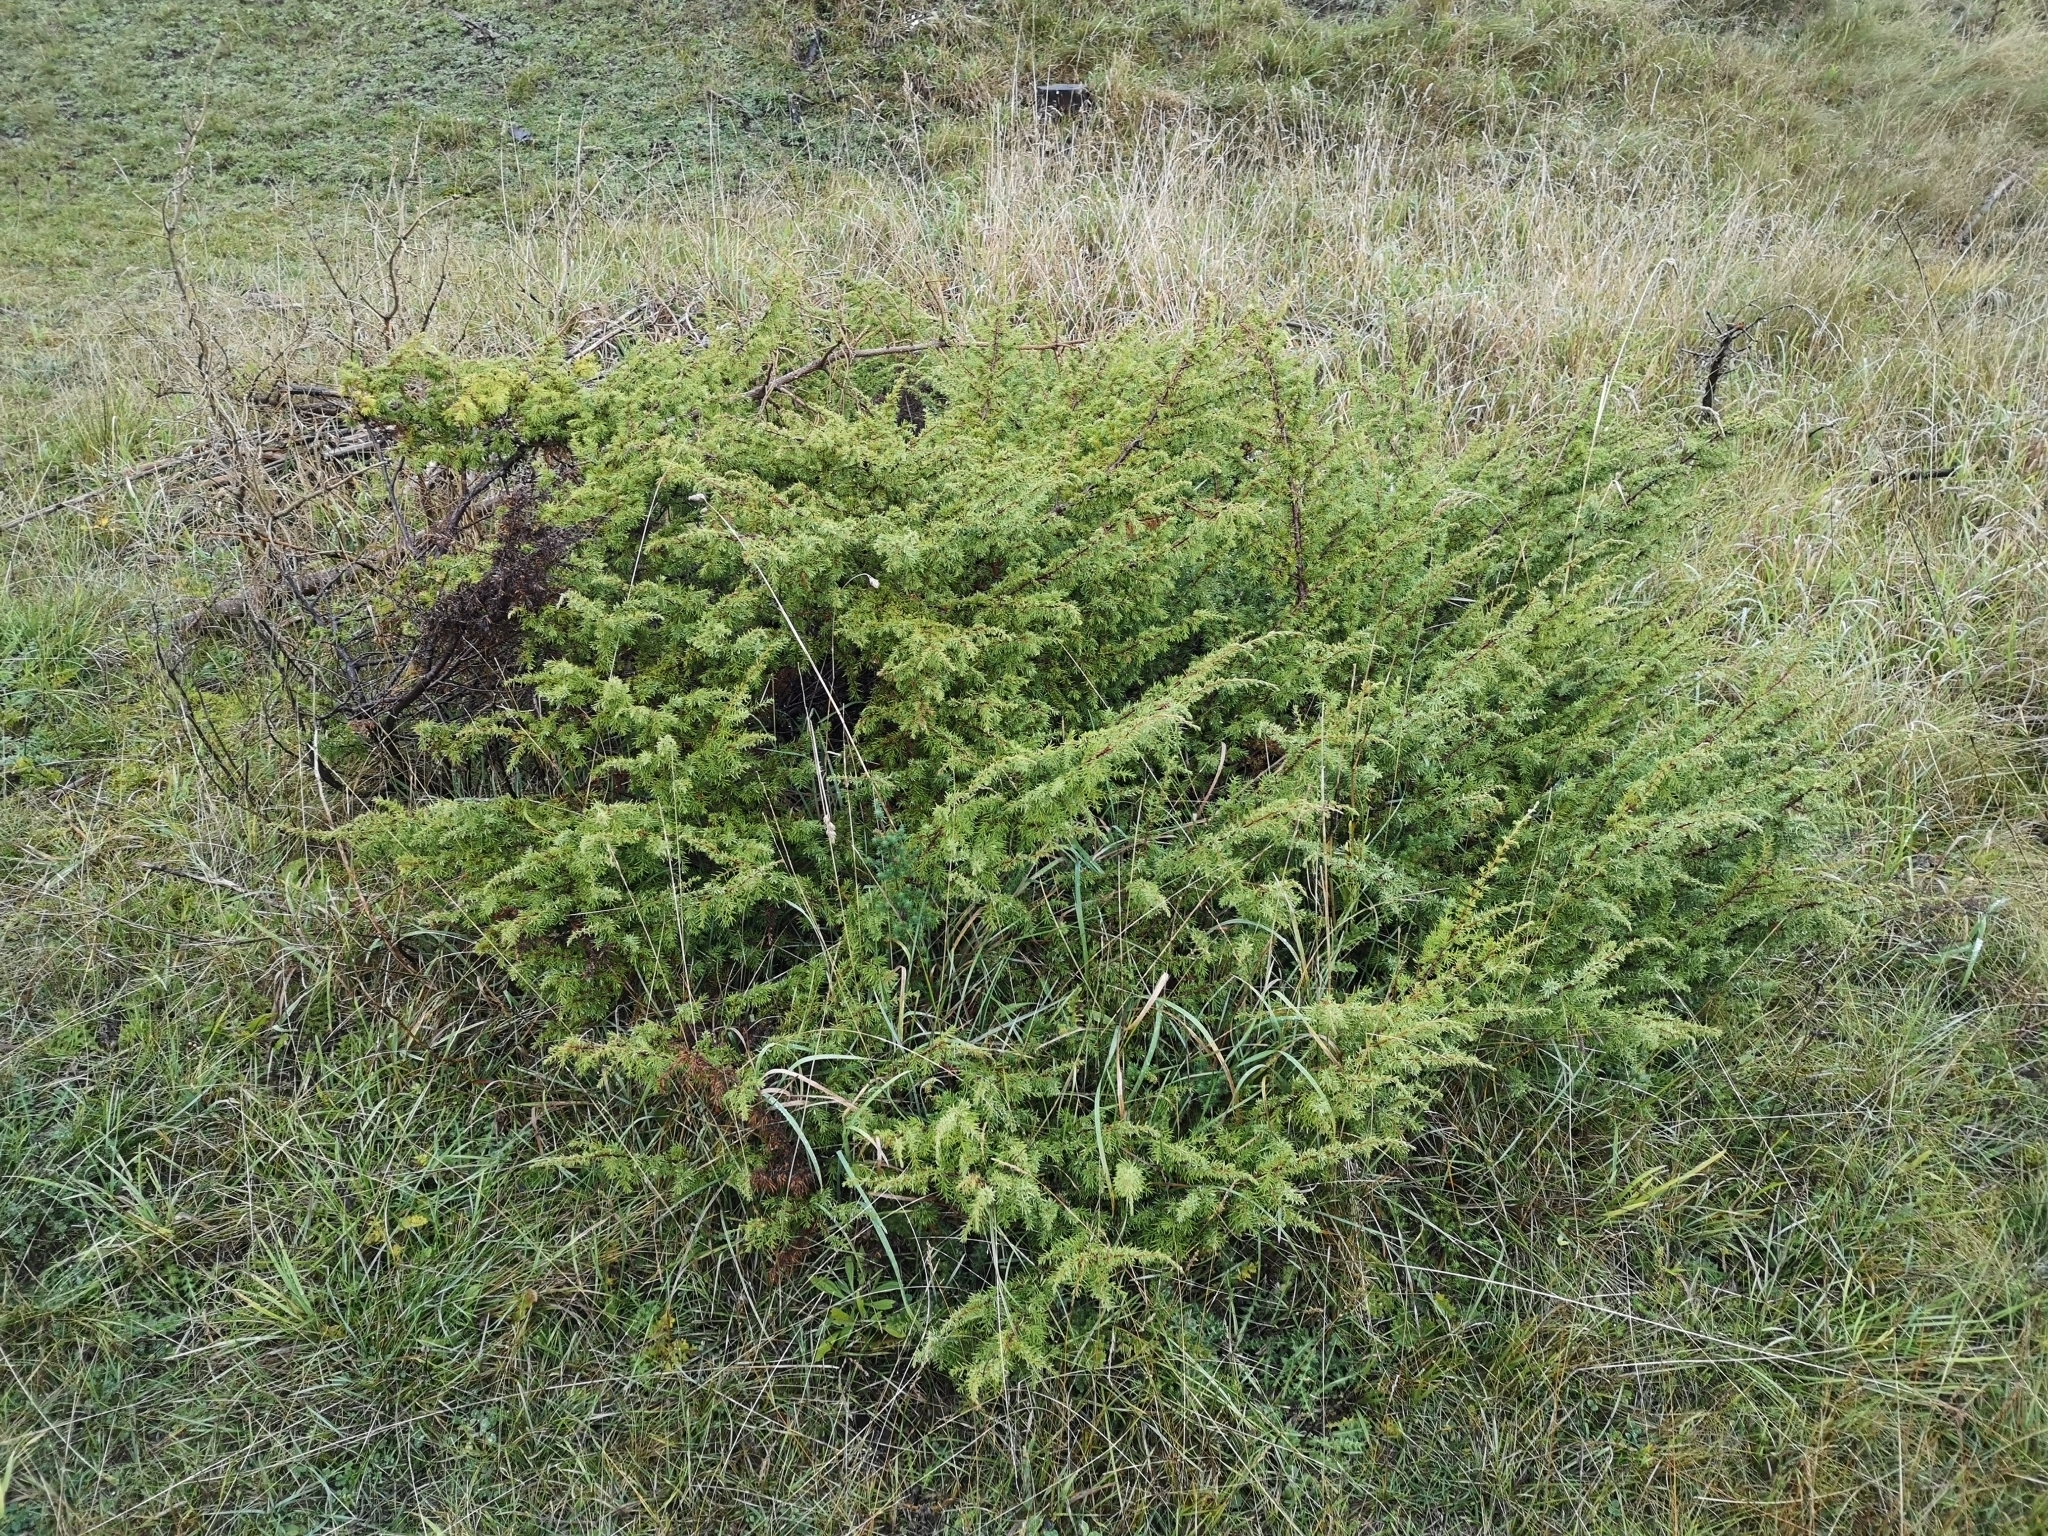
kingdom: Plantae
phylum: Tracheophyta
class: Pinopsida
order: Pinales
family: Cupressaceae
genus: Juniperus
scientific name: Juniperus communis
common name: Common juniper
